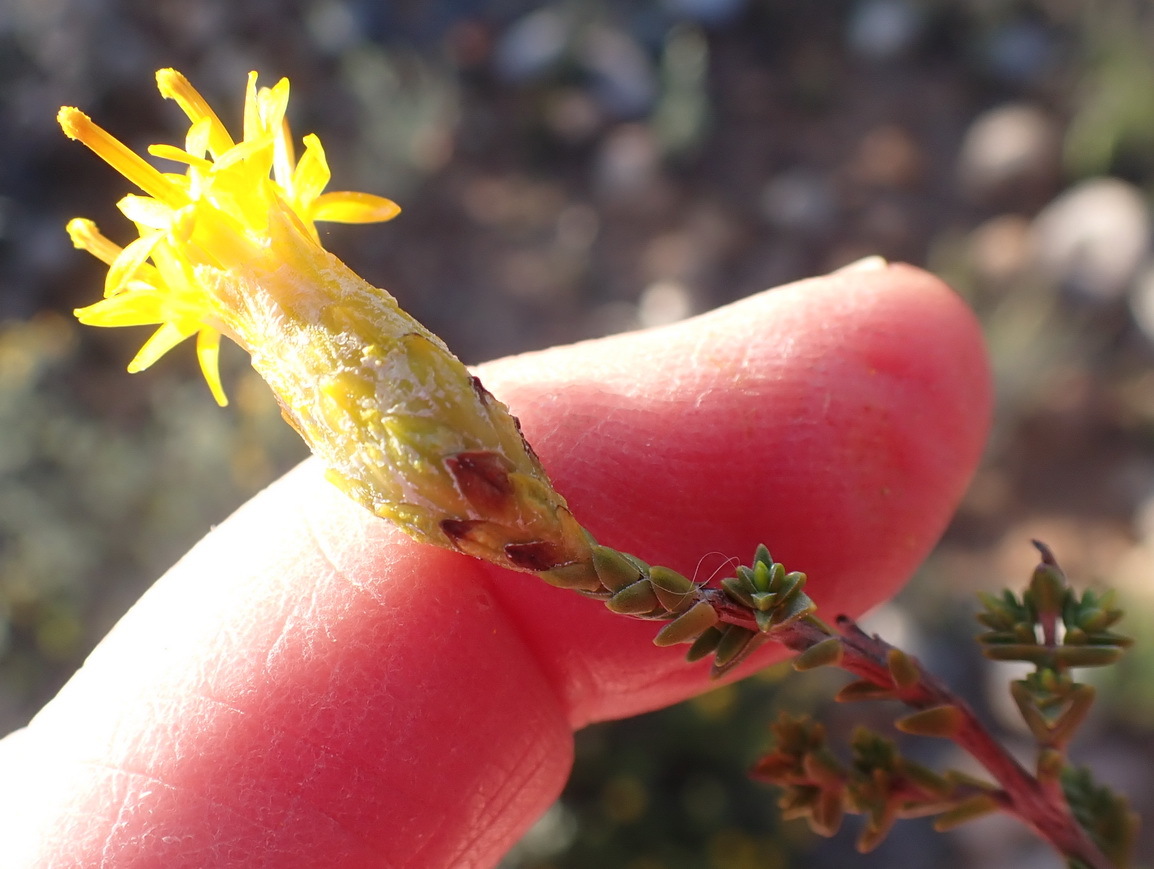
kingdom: Plantae
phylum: Tracheophyta
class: Magnoliopsida
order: Asterales
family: Asteraceae
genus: Pteronia
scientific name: Pteronia glomerata
